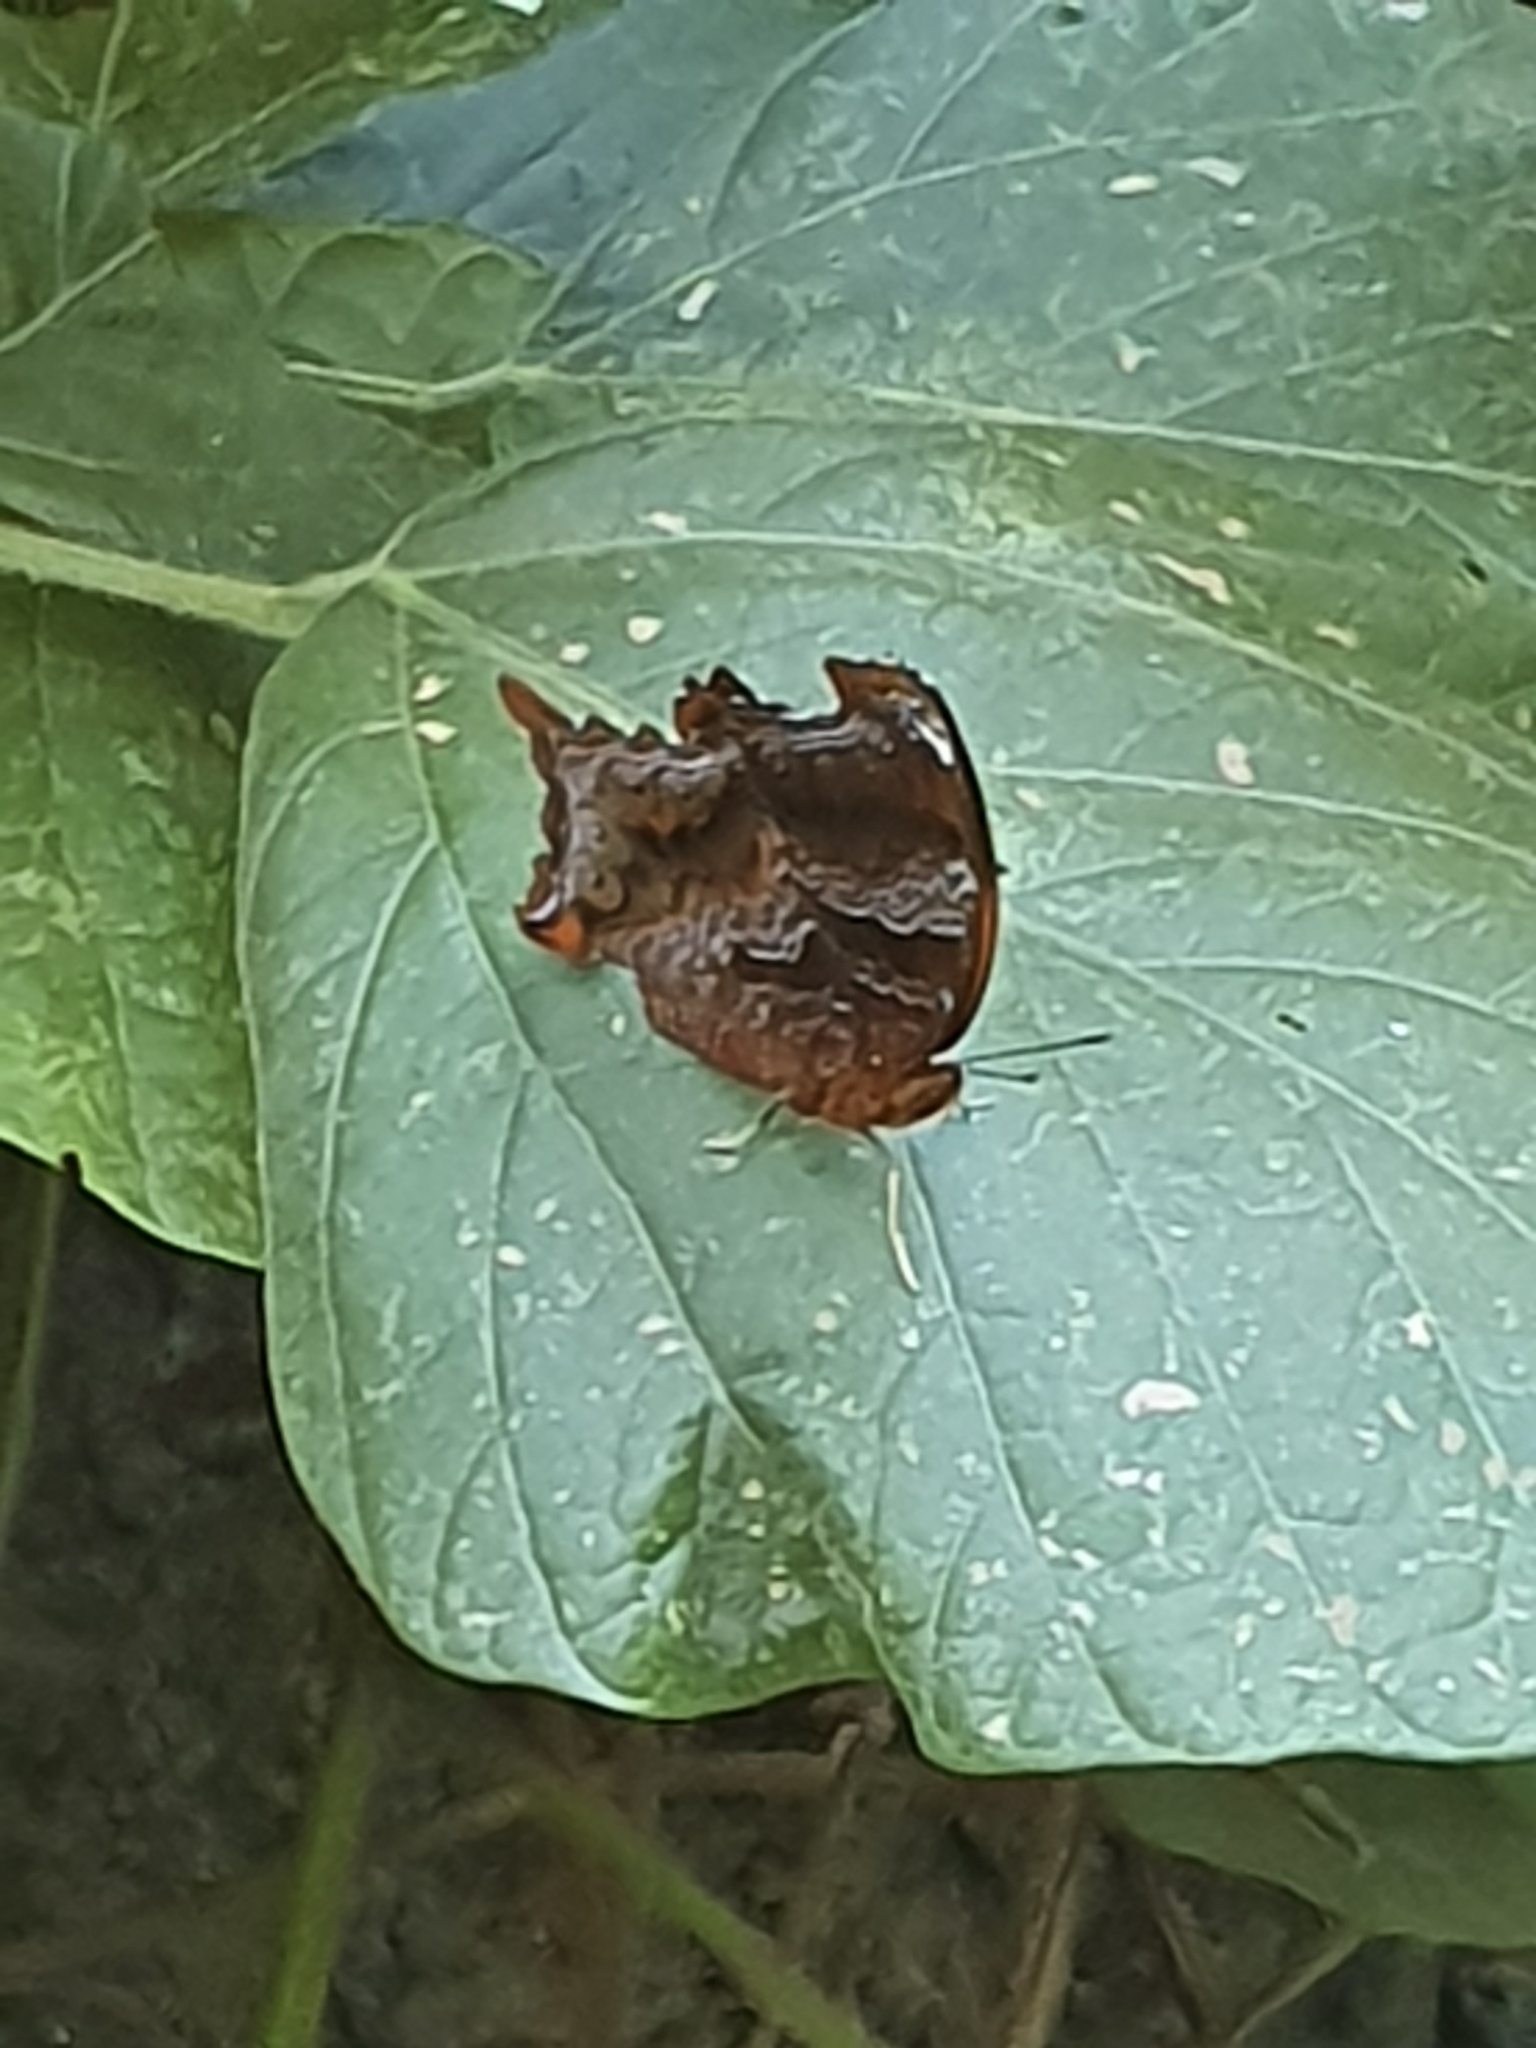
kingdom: Animalia
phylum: Arthropoda
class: Insecta
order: Lepidoptera
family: Nymphalidae
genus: Rhinopalpa
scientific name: Rhinopalpa polynice
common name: Wizard
